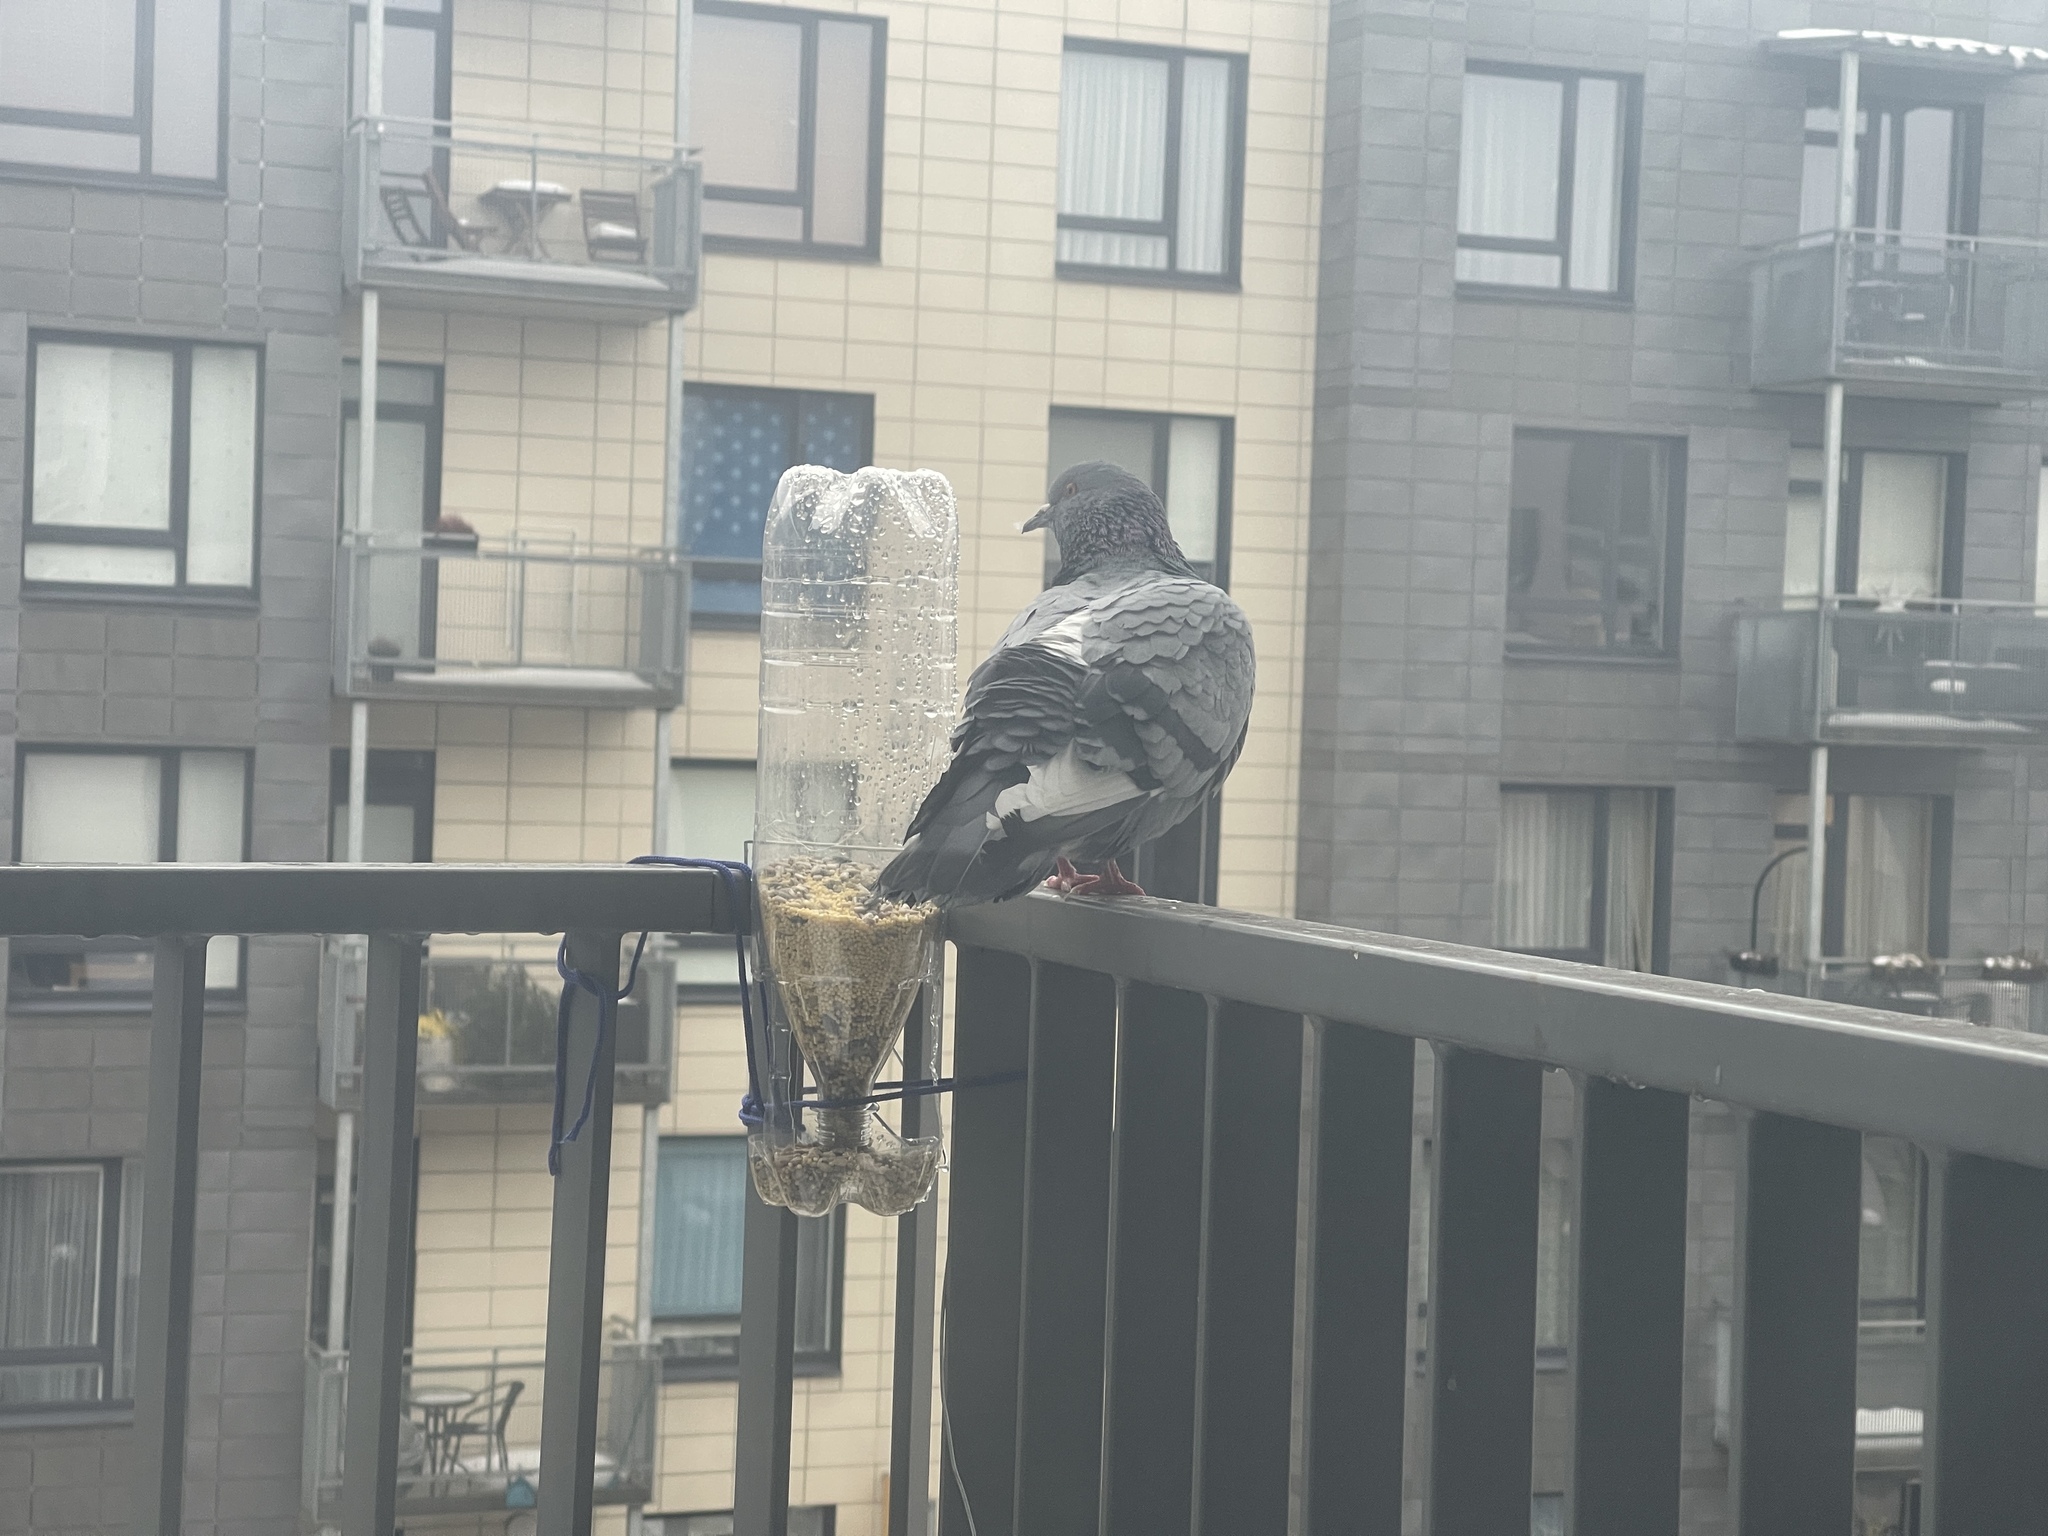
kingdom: Animalia
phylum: Chordata
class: Aves
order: Columbiformes
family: Columbidae
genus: Columba
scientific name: Columba livia
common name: Rock pigeon
